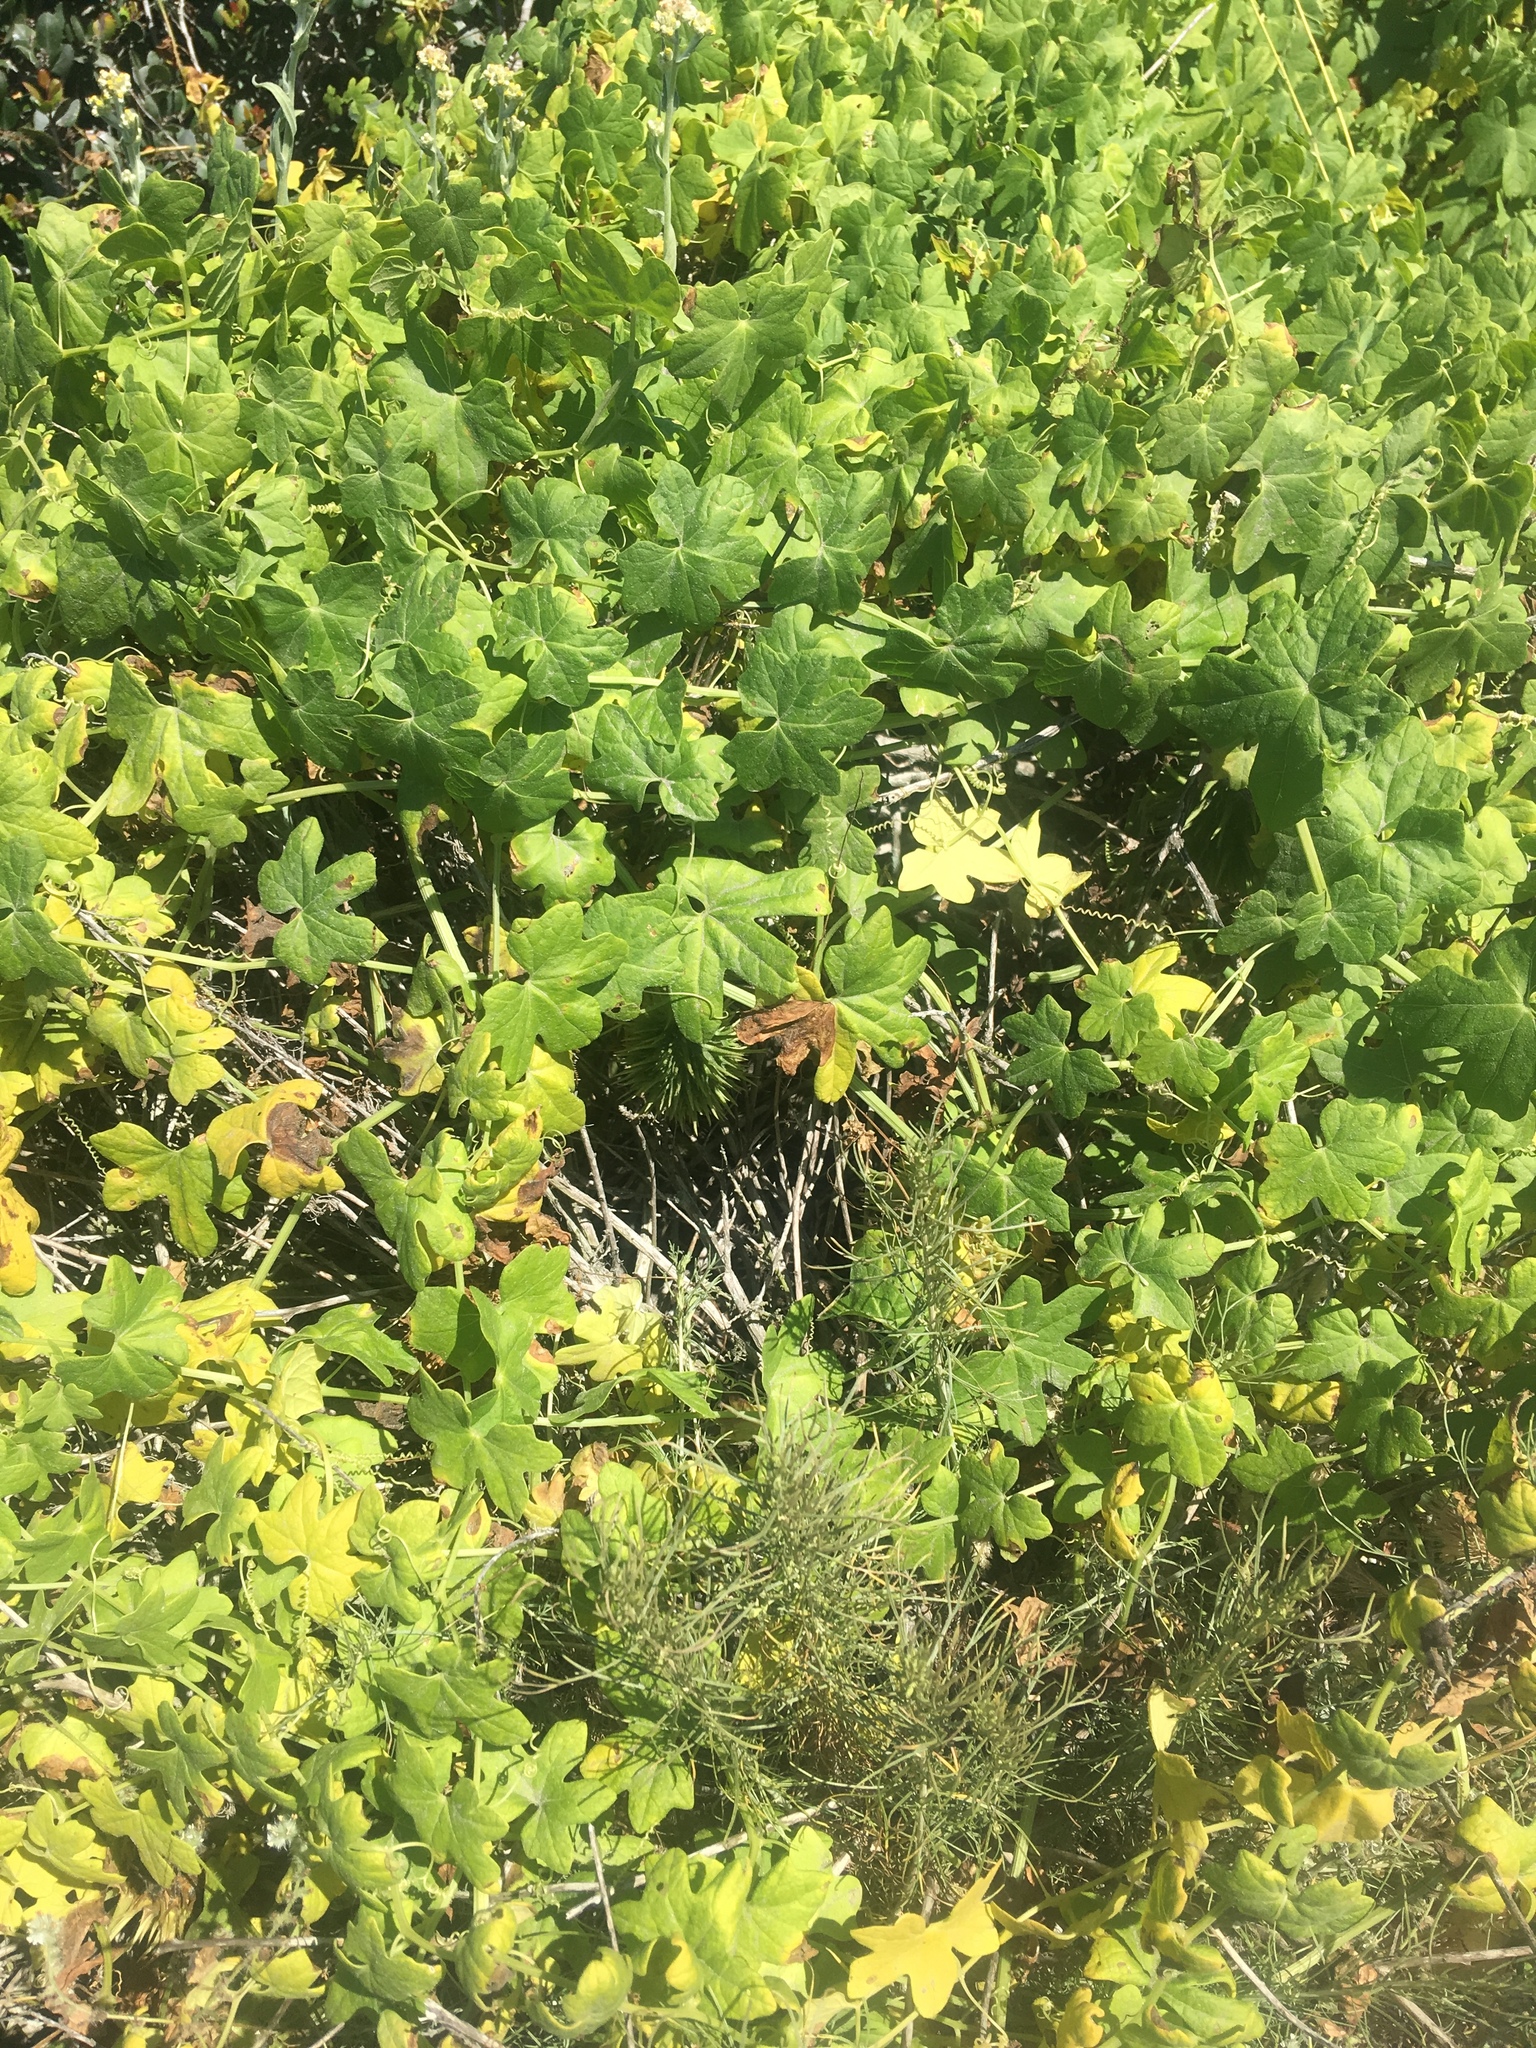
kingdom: Plantae
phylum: Tracheophyta
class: Magnoliopsida
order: Cucurbitales
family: Cucurbitaceae
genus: Marah
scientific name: Marah macrocarpa
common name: Cucamonga manroot
